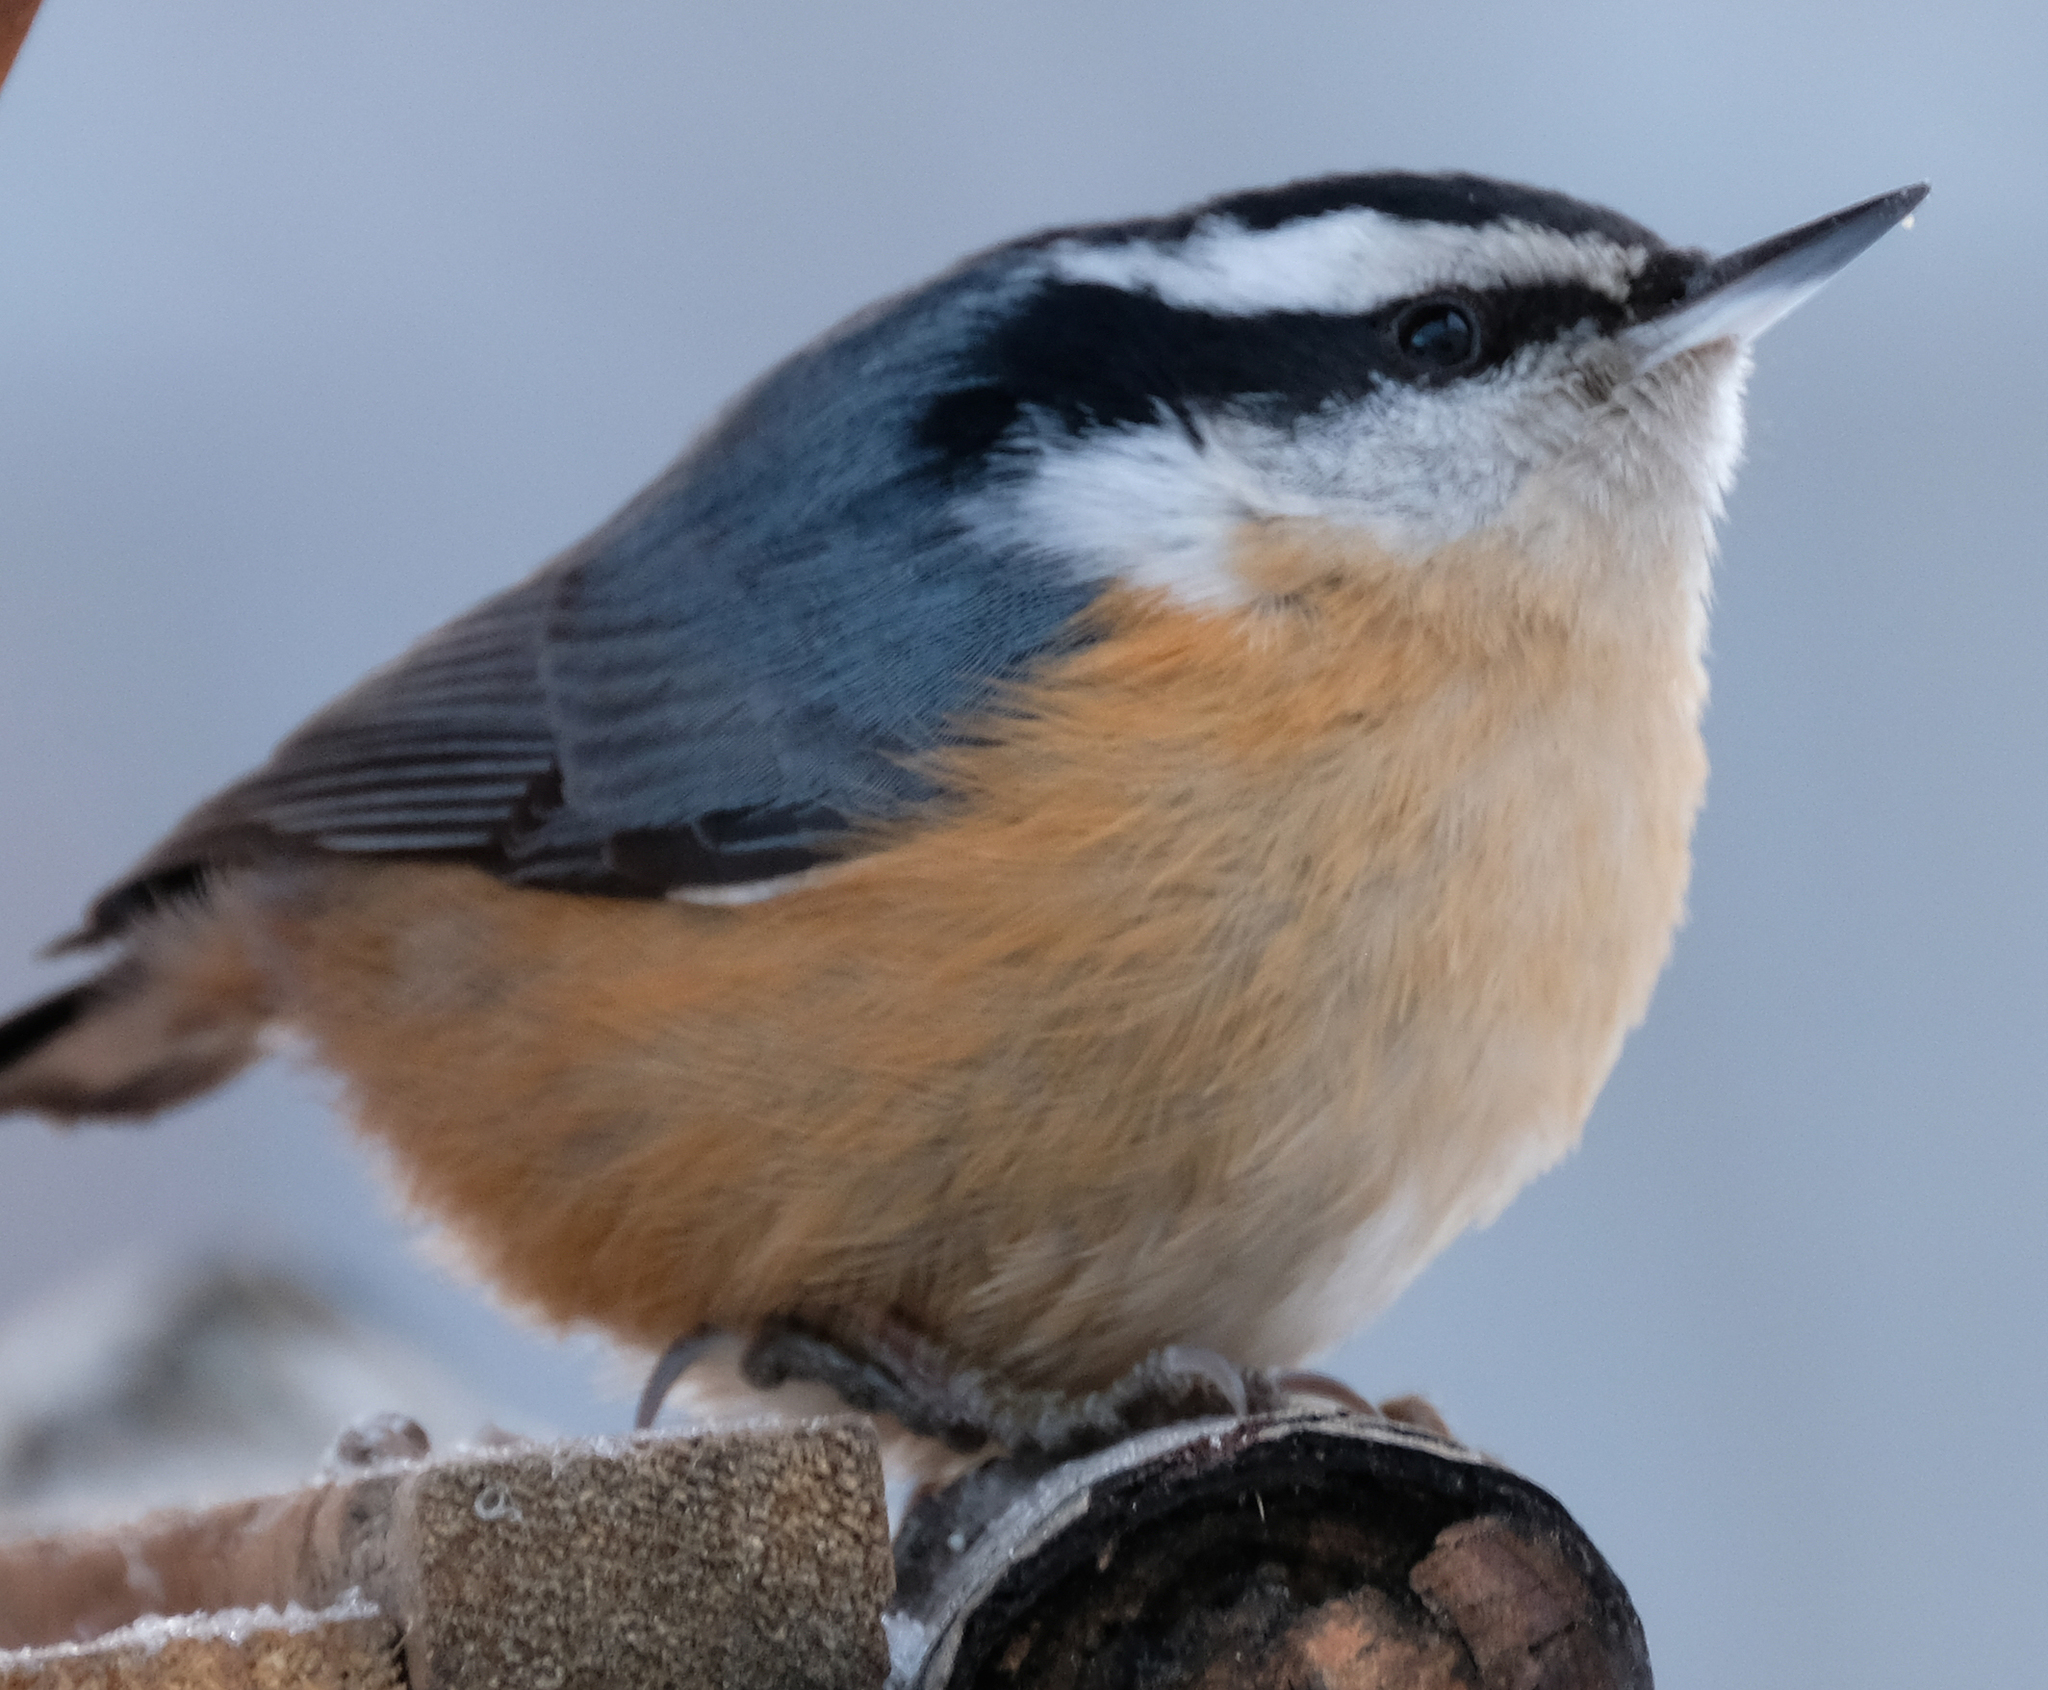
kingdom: Animalia
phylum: Chordata
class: Aves
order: Passeriformes
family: Sittidae
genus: Sitta
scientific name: Sitta canadensis
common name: Red-breasted nuthatch
